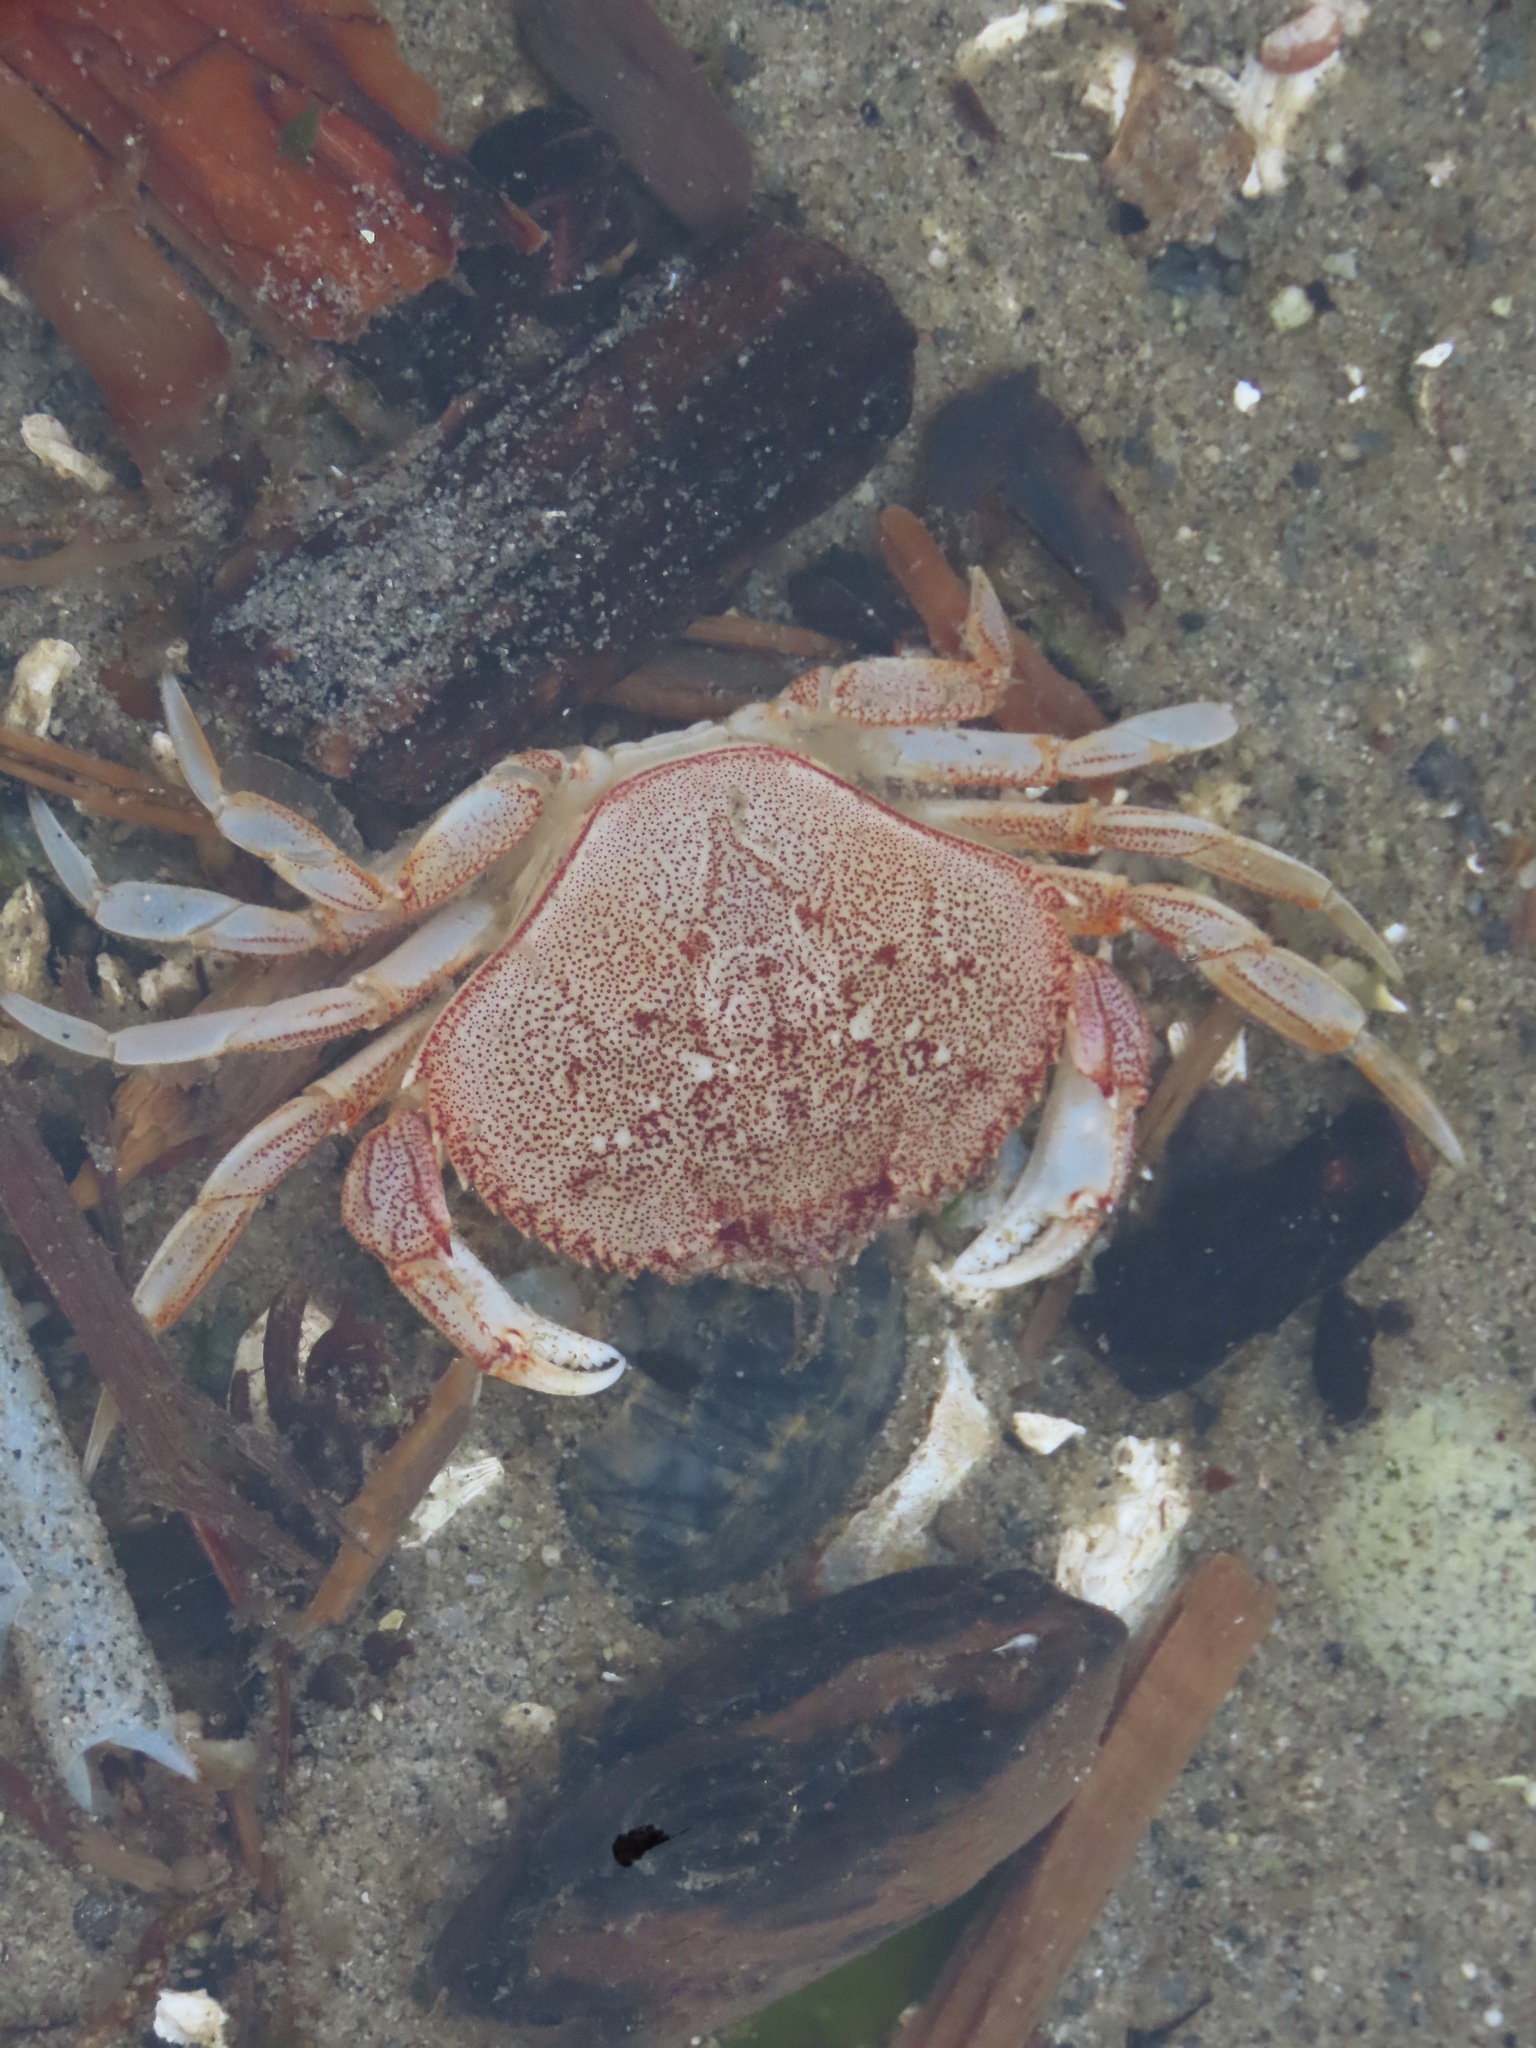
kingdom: Animalia
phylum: Arthropoda
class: Malacostraca
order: Decapoda
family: Cancridae
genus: Metacarcinus
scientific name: Metacarcinus magister
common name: Californian crab
